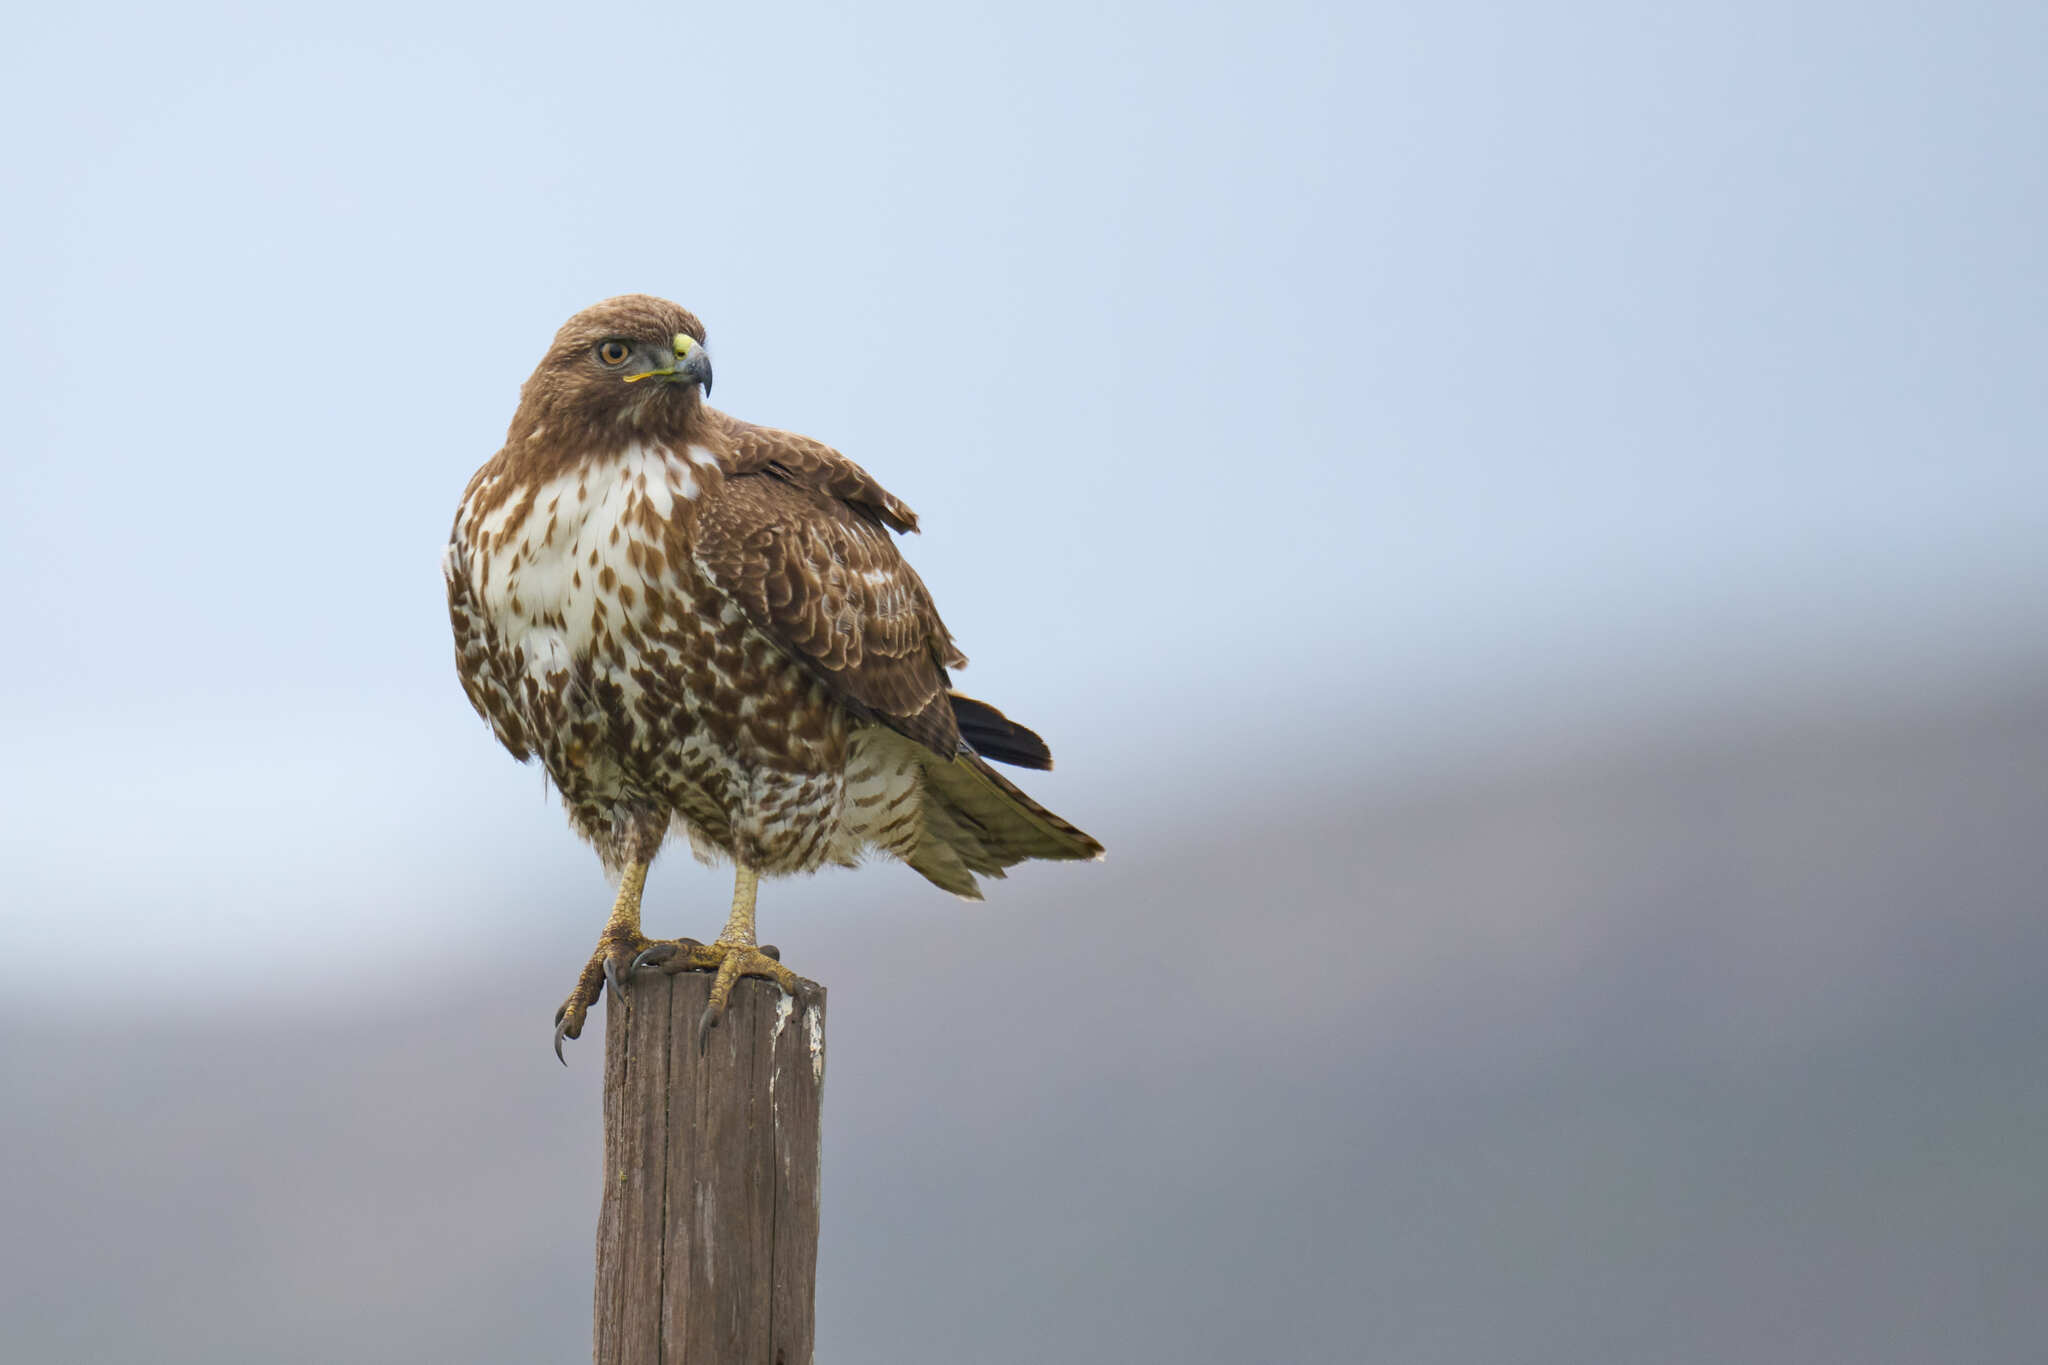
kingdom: Animalia
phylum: Chordata
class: Aves
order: Accipitriformes
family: Accipitridae
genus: Buteo
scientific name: Buteo jamaicensis
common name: Red-tailed hawk
